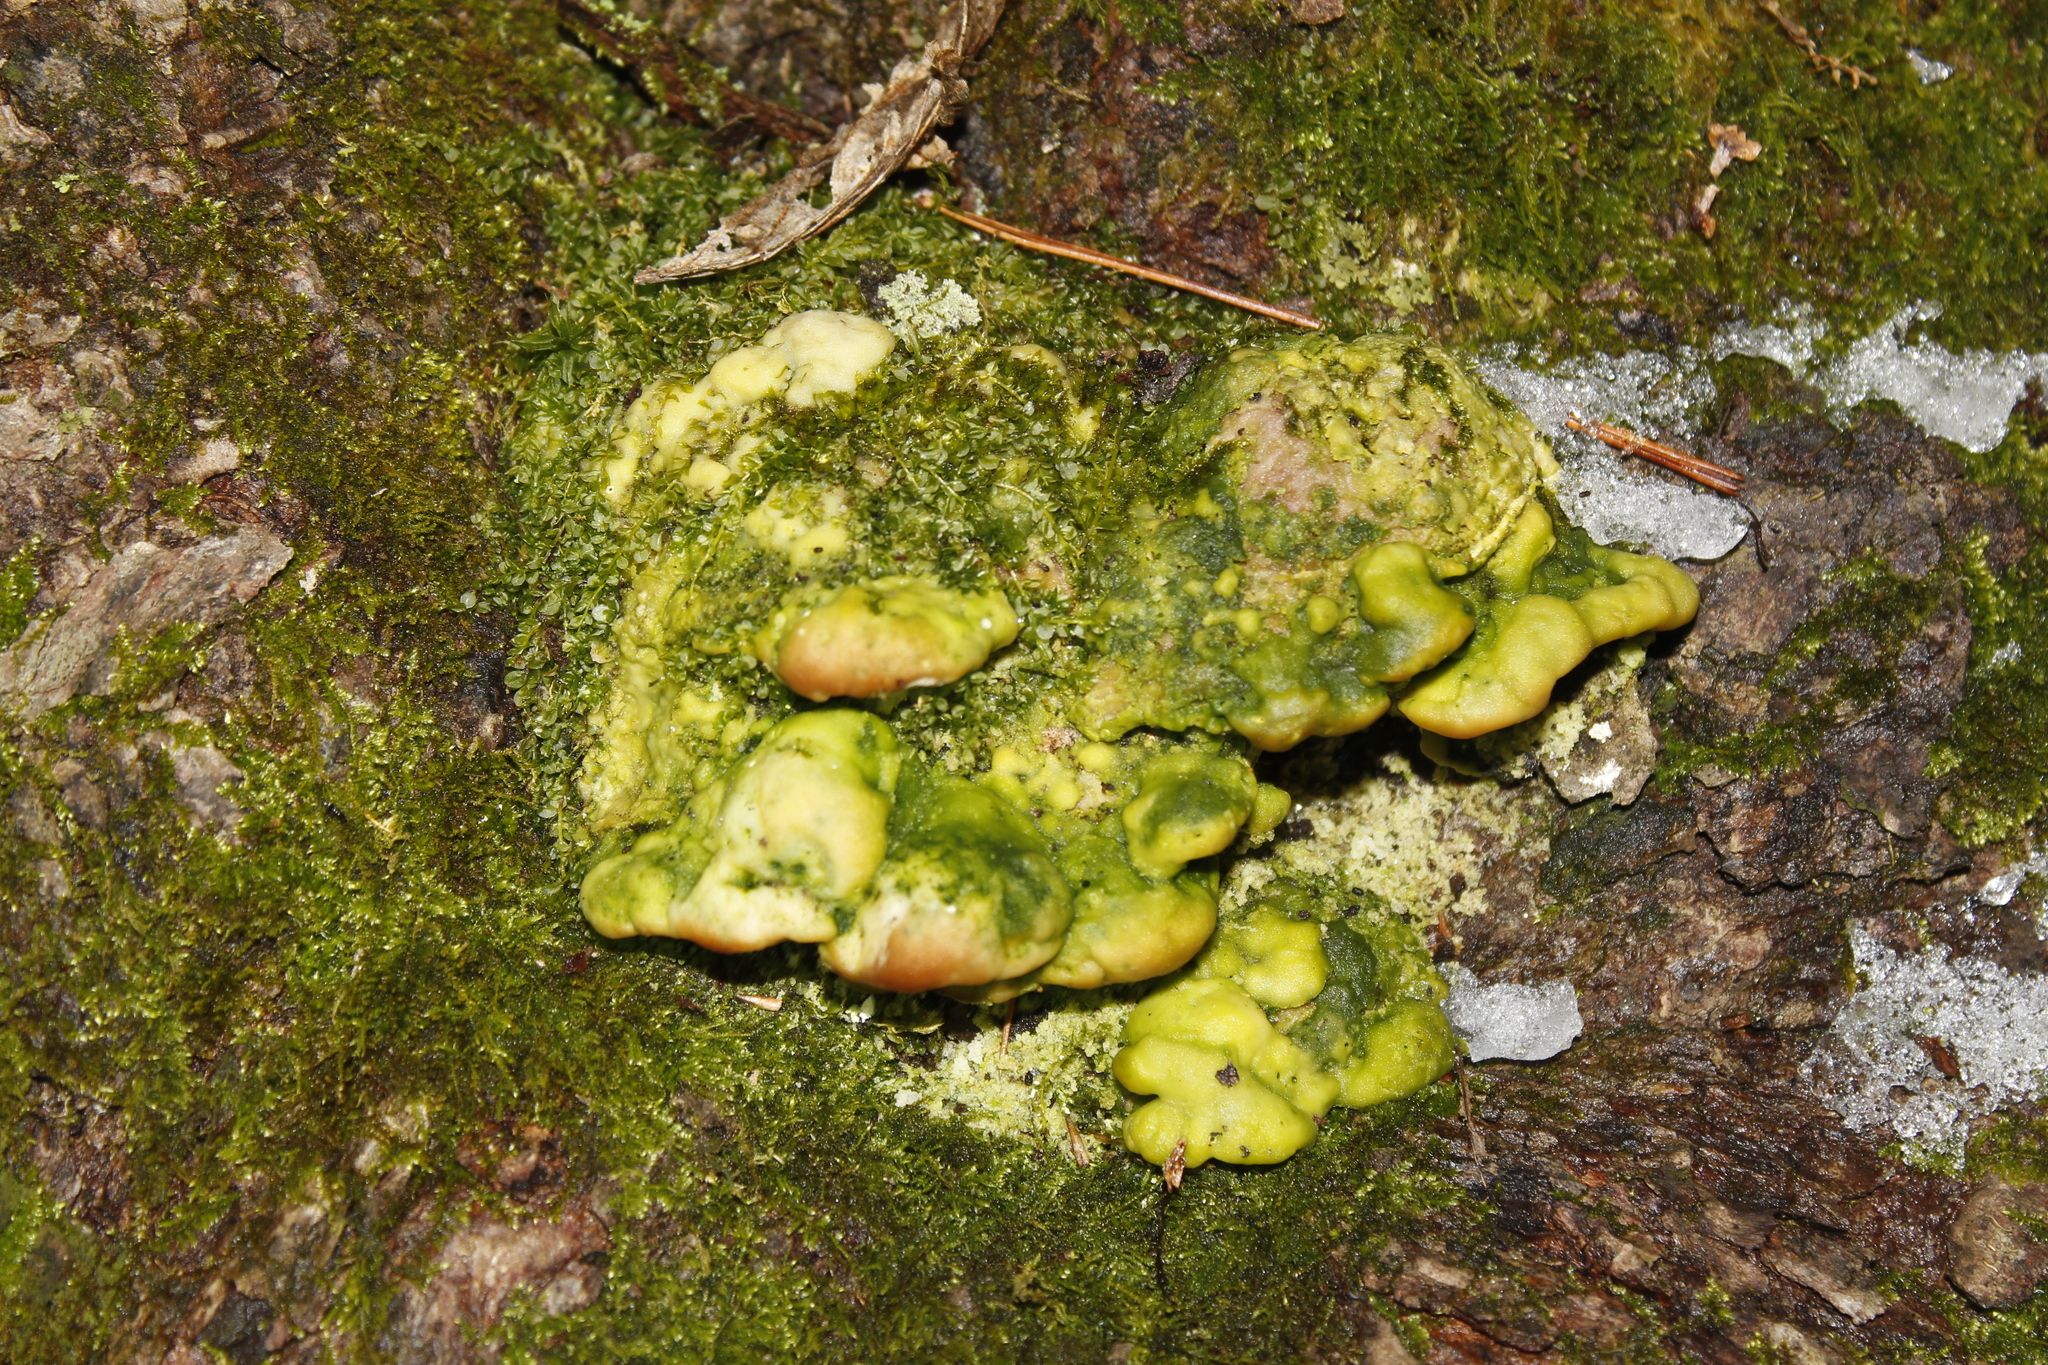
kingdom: Fungi
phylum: Basidiomycota
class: Agaricomycetes
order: Hymenochaetales
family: Oxyporaceae
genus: Oxyporus
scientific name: Oxyporus populinus
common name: Poplar bracket
